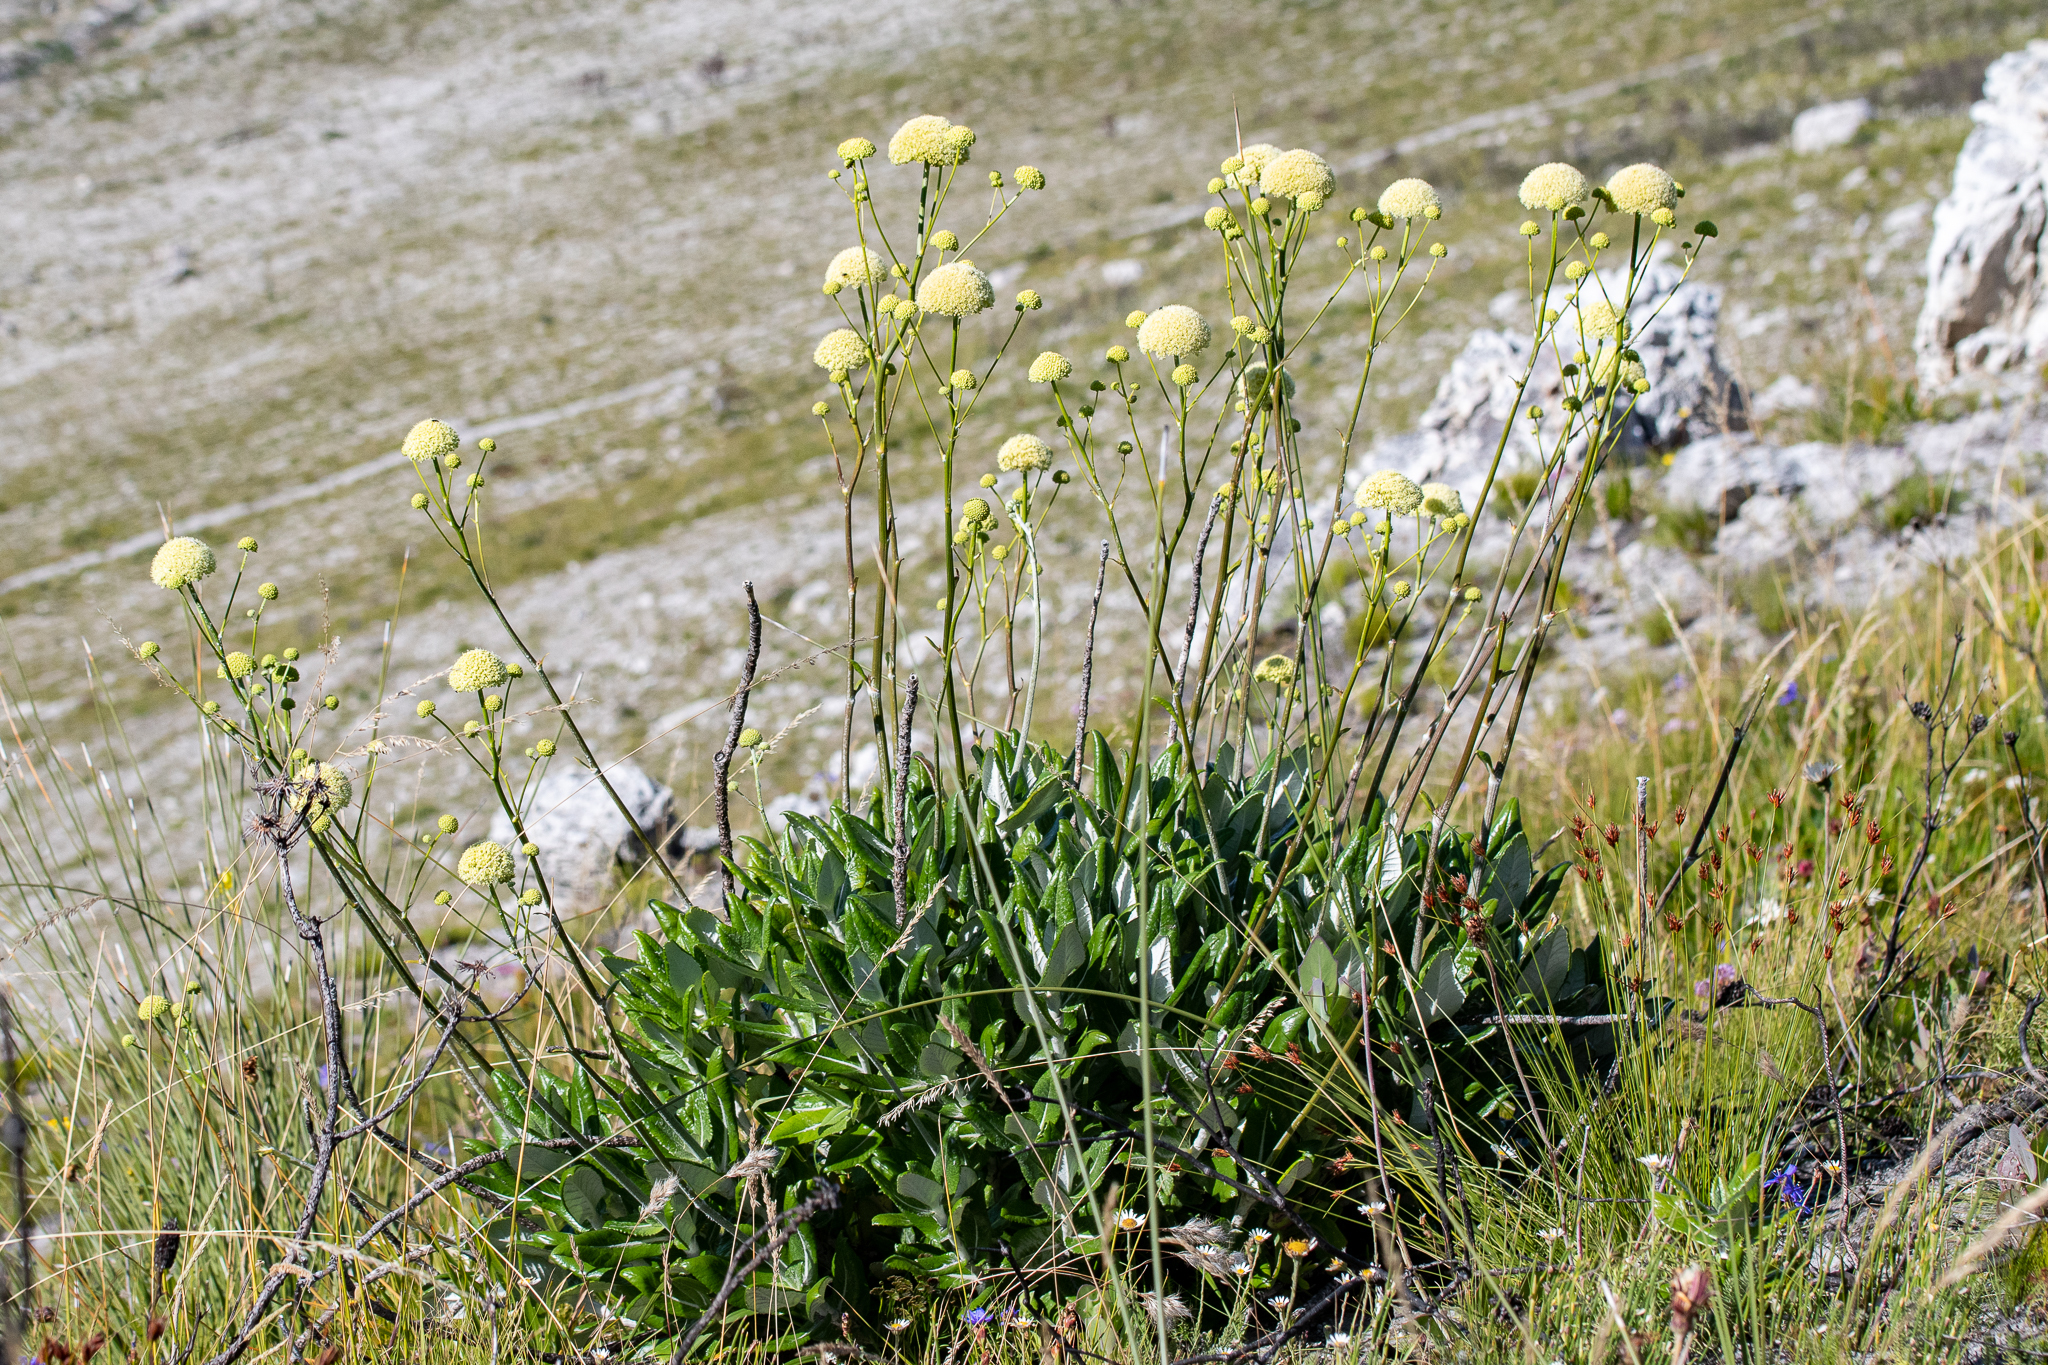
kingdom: Plantae
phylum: Tracheophyta
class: Magnoliopsida
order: Apiales
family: Apiaceae
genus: Hermas
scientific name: Hermas villosa
